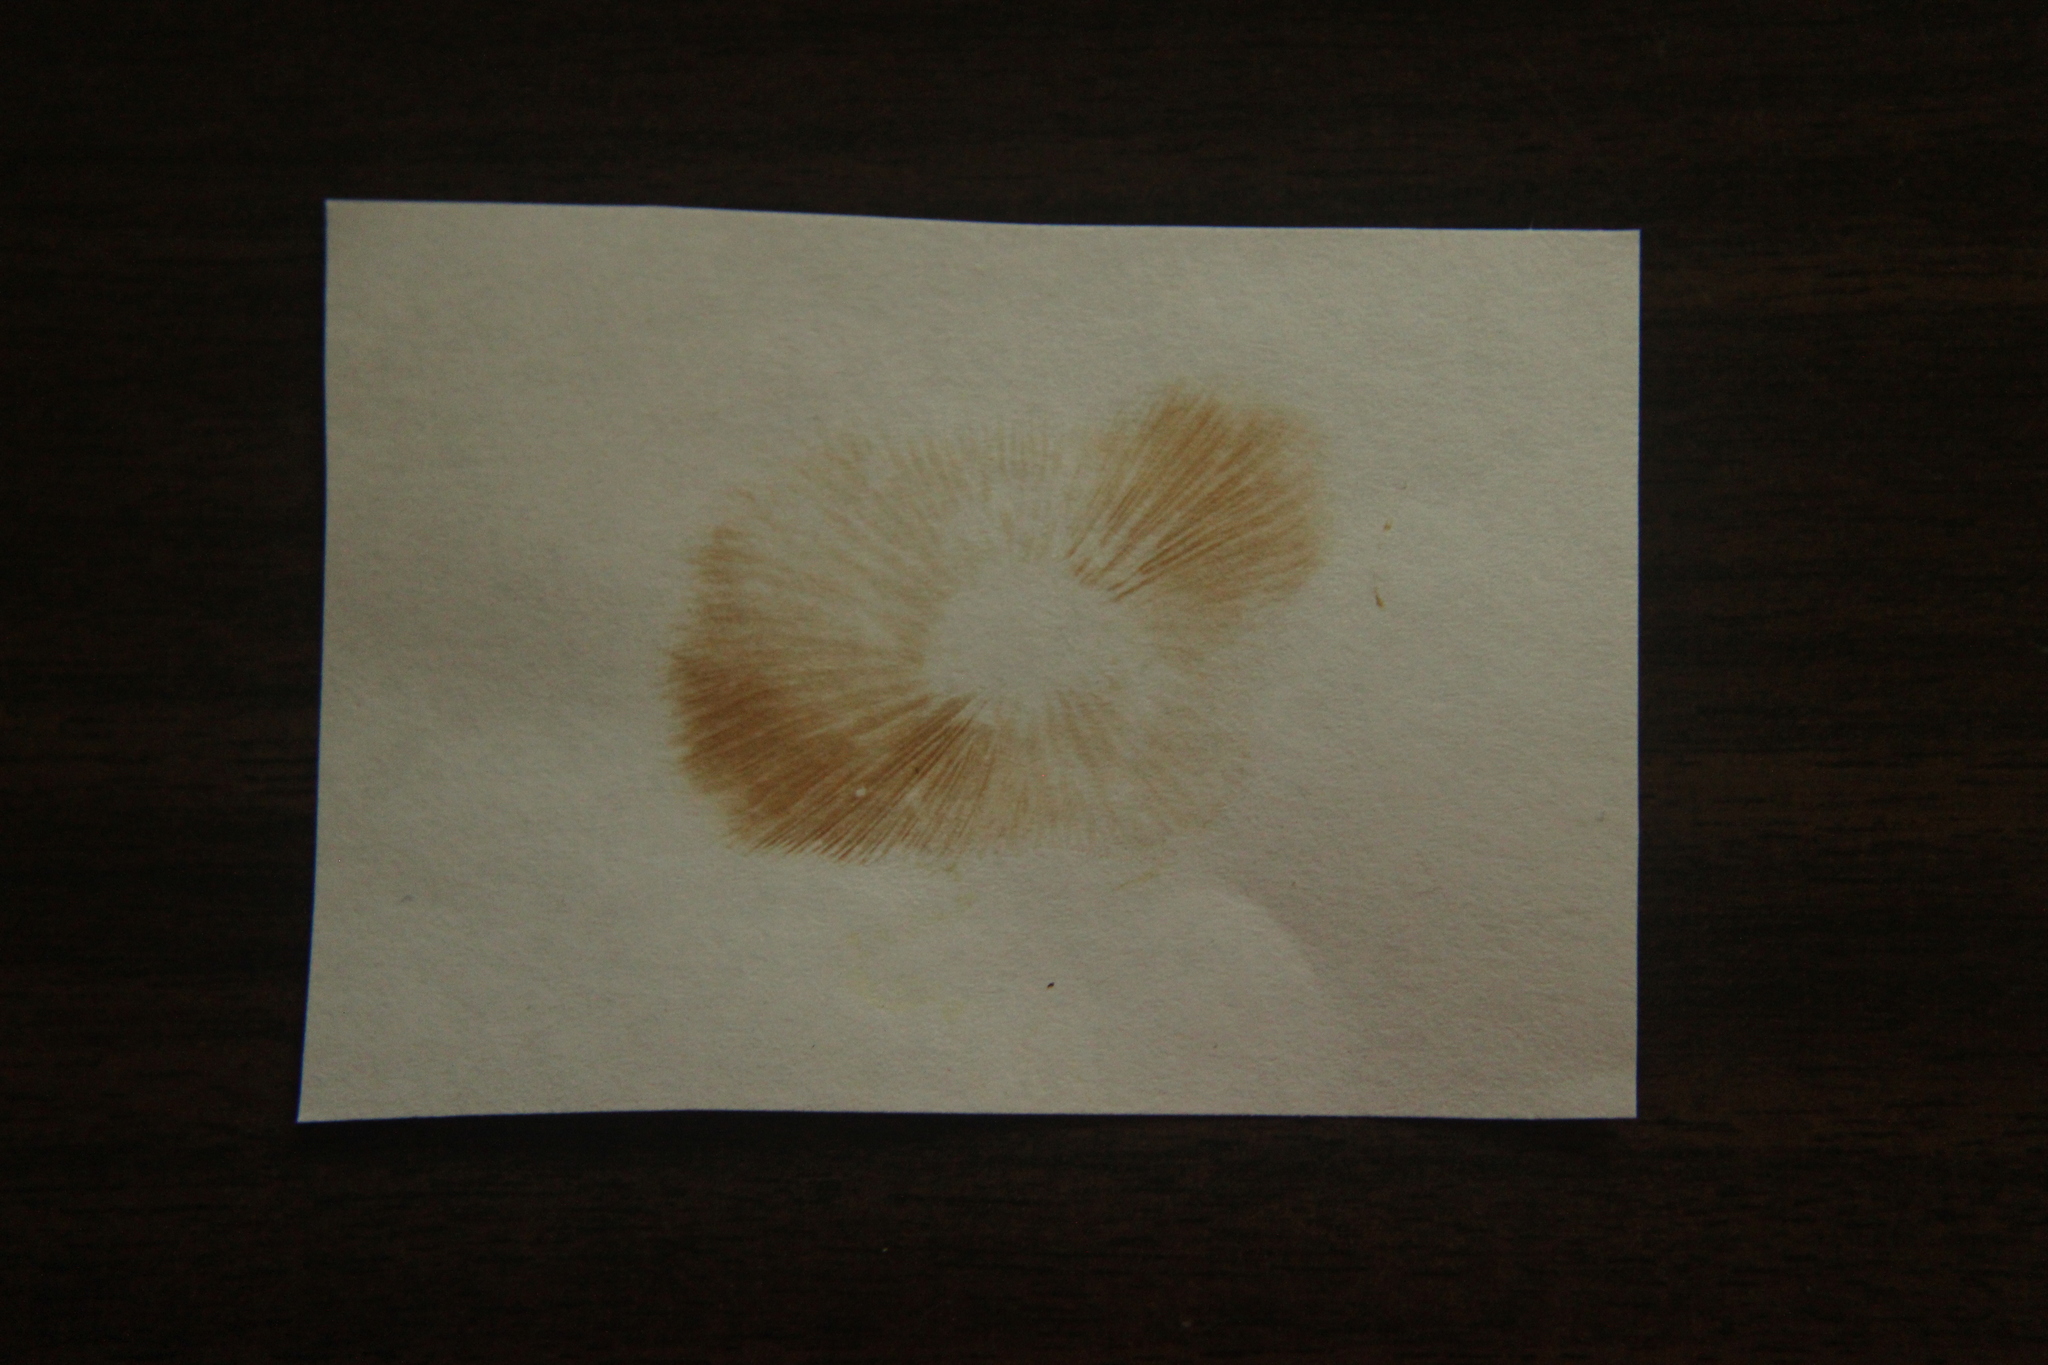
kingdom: Fungi
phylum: Basidiomycota
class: Agaricomycetes
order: Agaricales
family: Hymenogastraceae
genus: Gymnopilus
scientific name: Gymnopilus lepidotus
